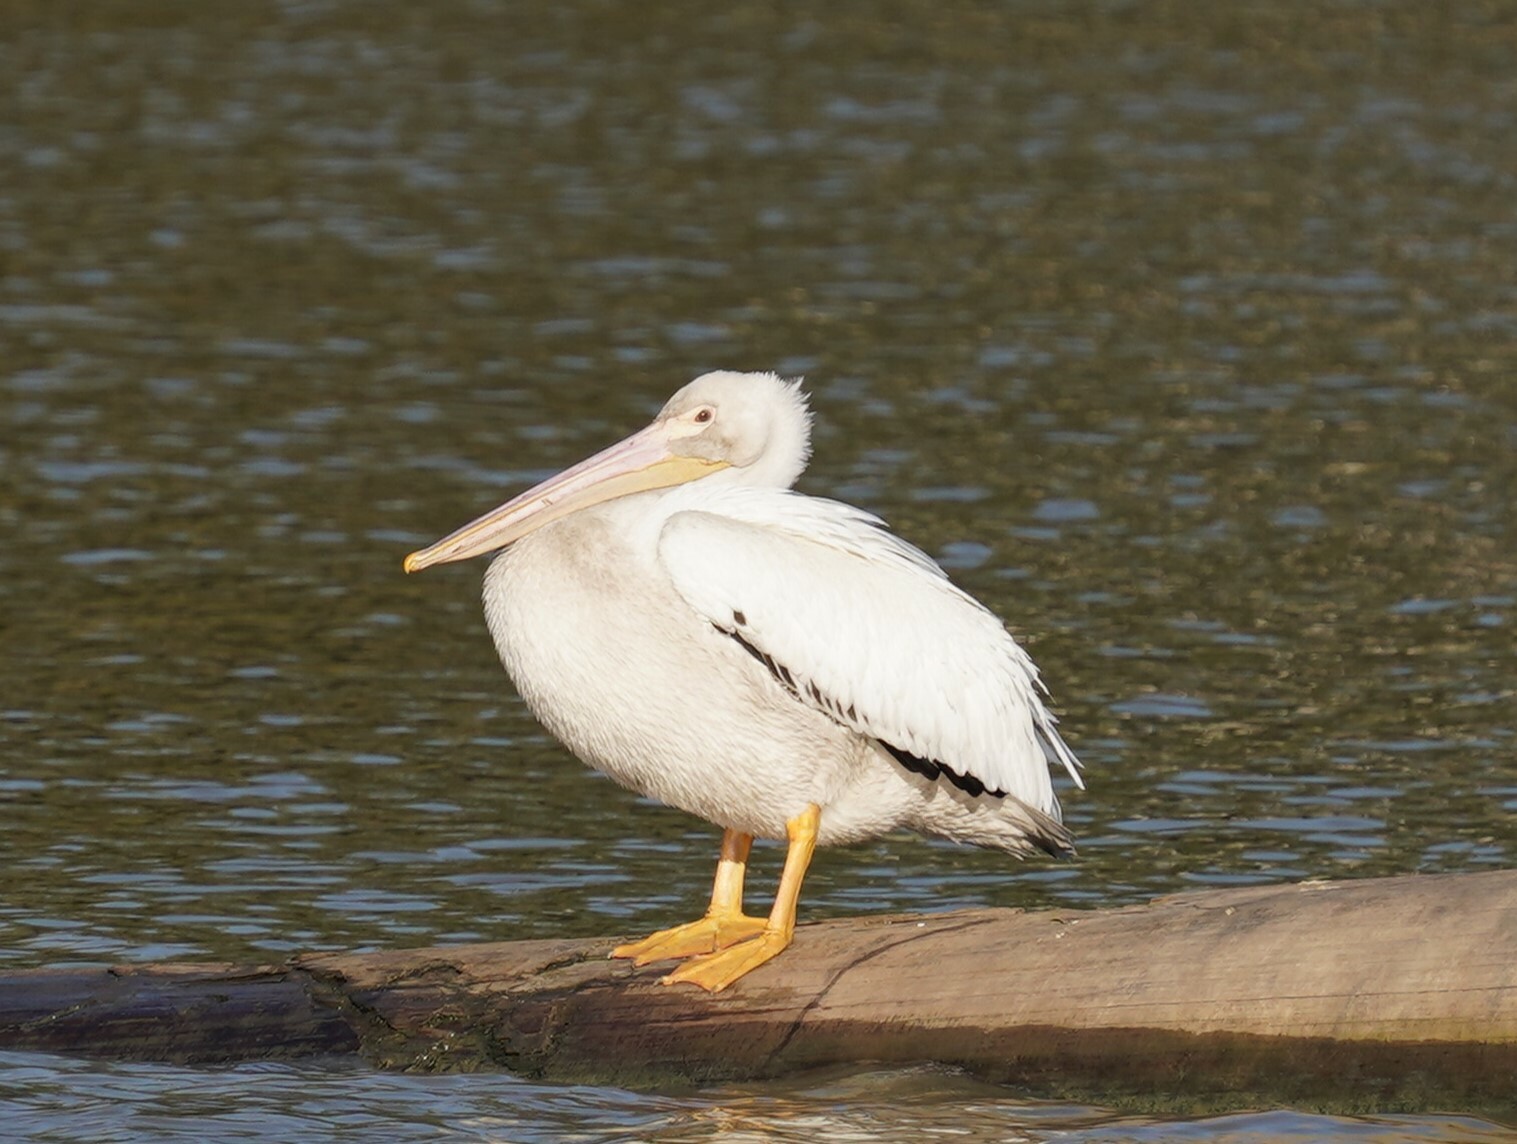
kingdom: Animalia
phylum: Chordata
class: Aves
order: Pelecaniformes
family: Pelecanidae
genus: Pelecanus
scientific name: Pelecanus erythrorhynchos
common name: American white pelican
